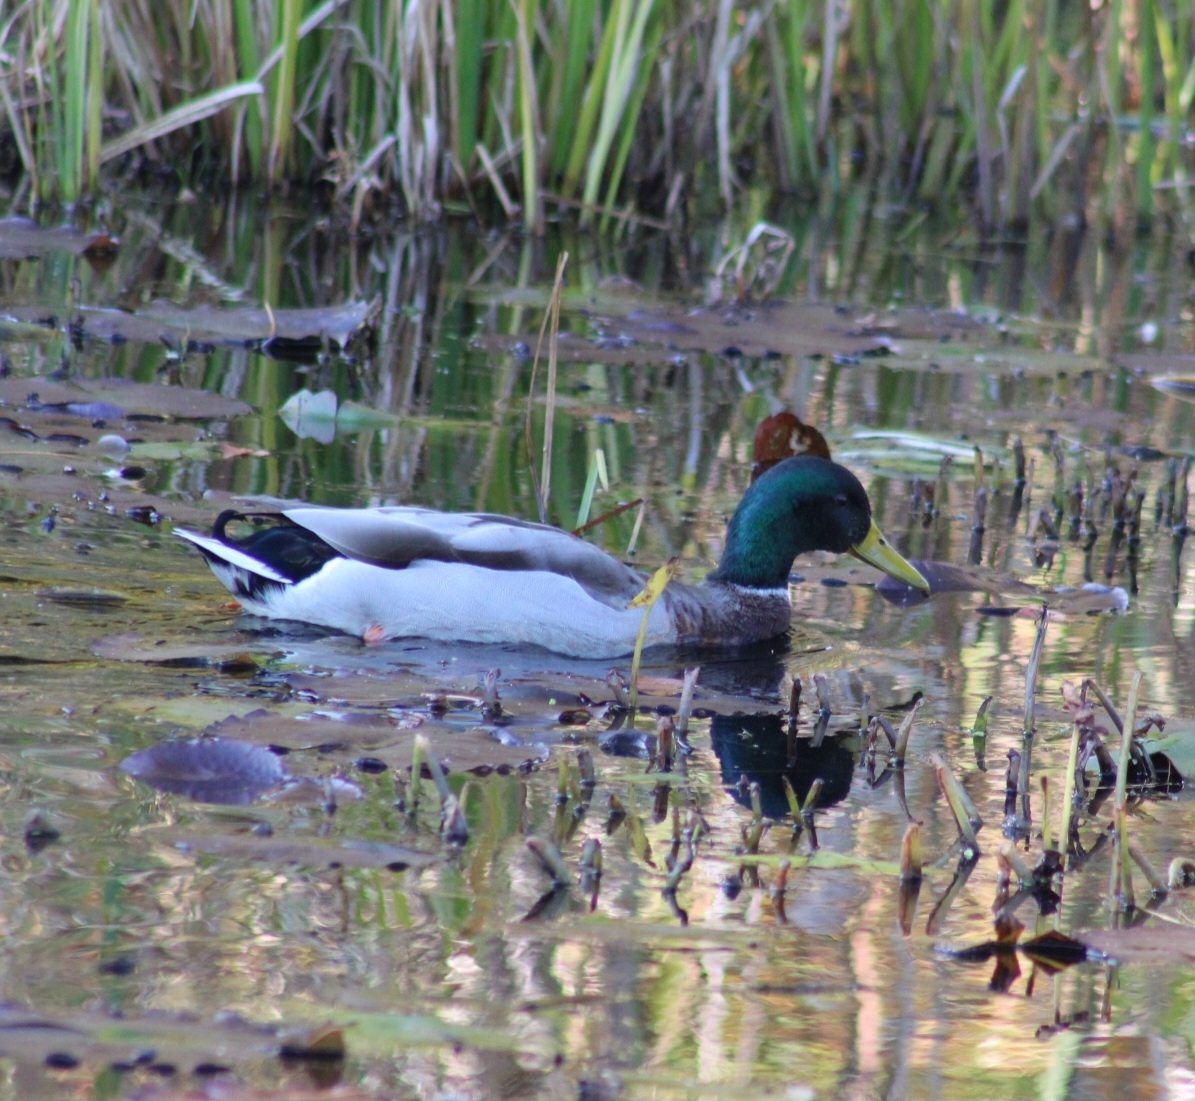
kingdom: Animalia
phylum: Chordata
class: Aves
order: Anseriformes
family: Anatidae
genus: Anas
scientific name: Anas platyrhynchos
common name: Mallard
